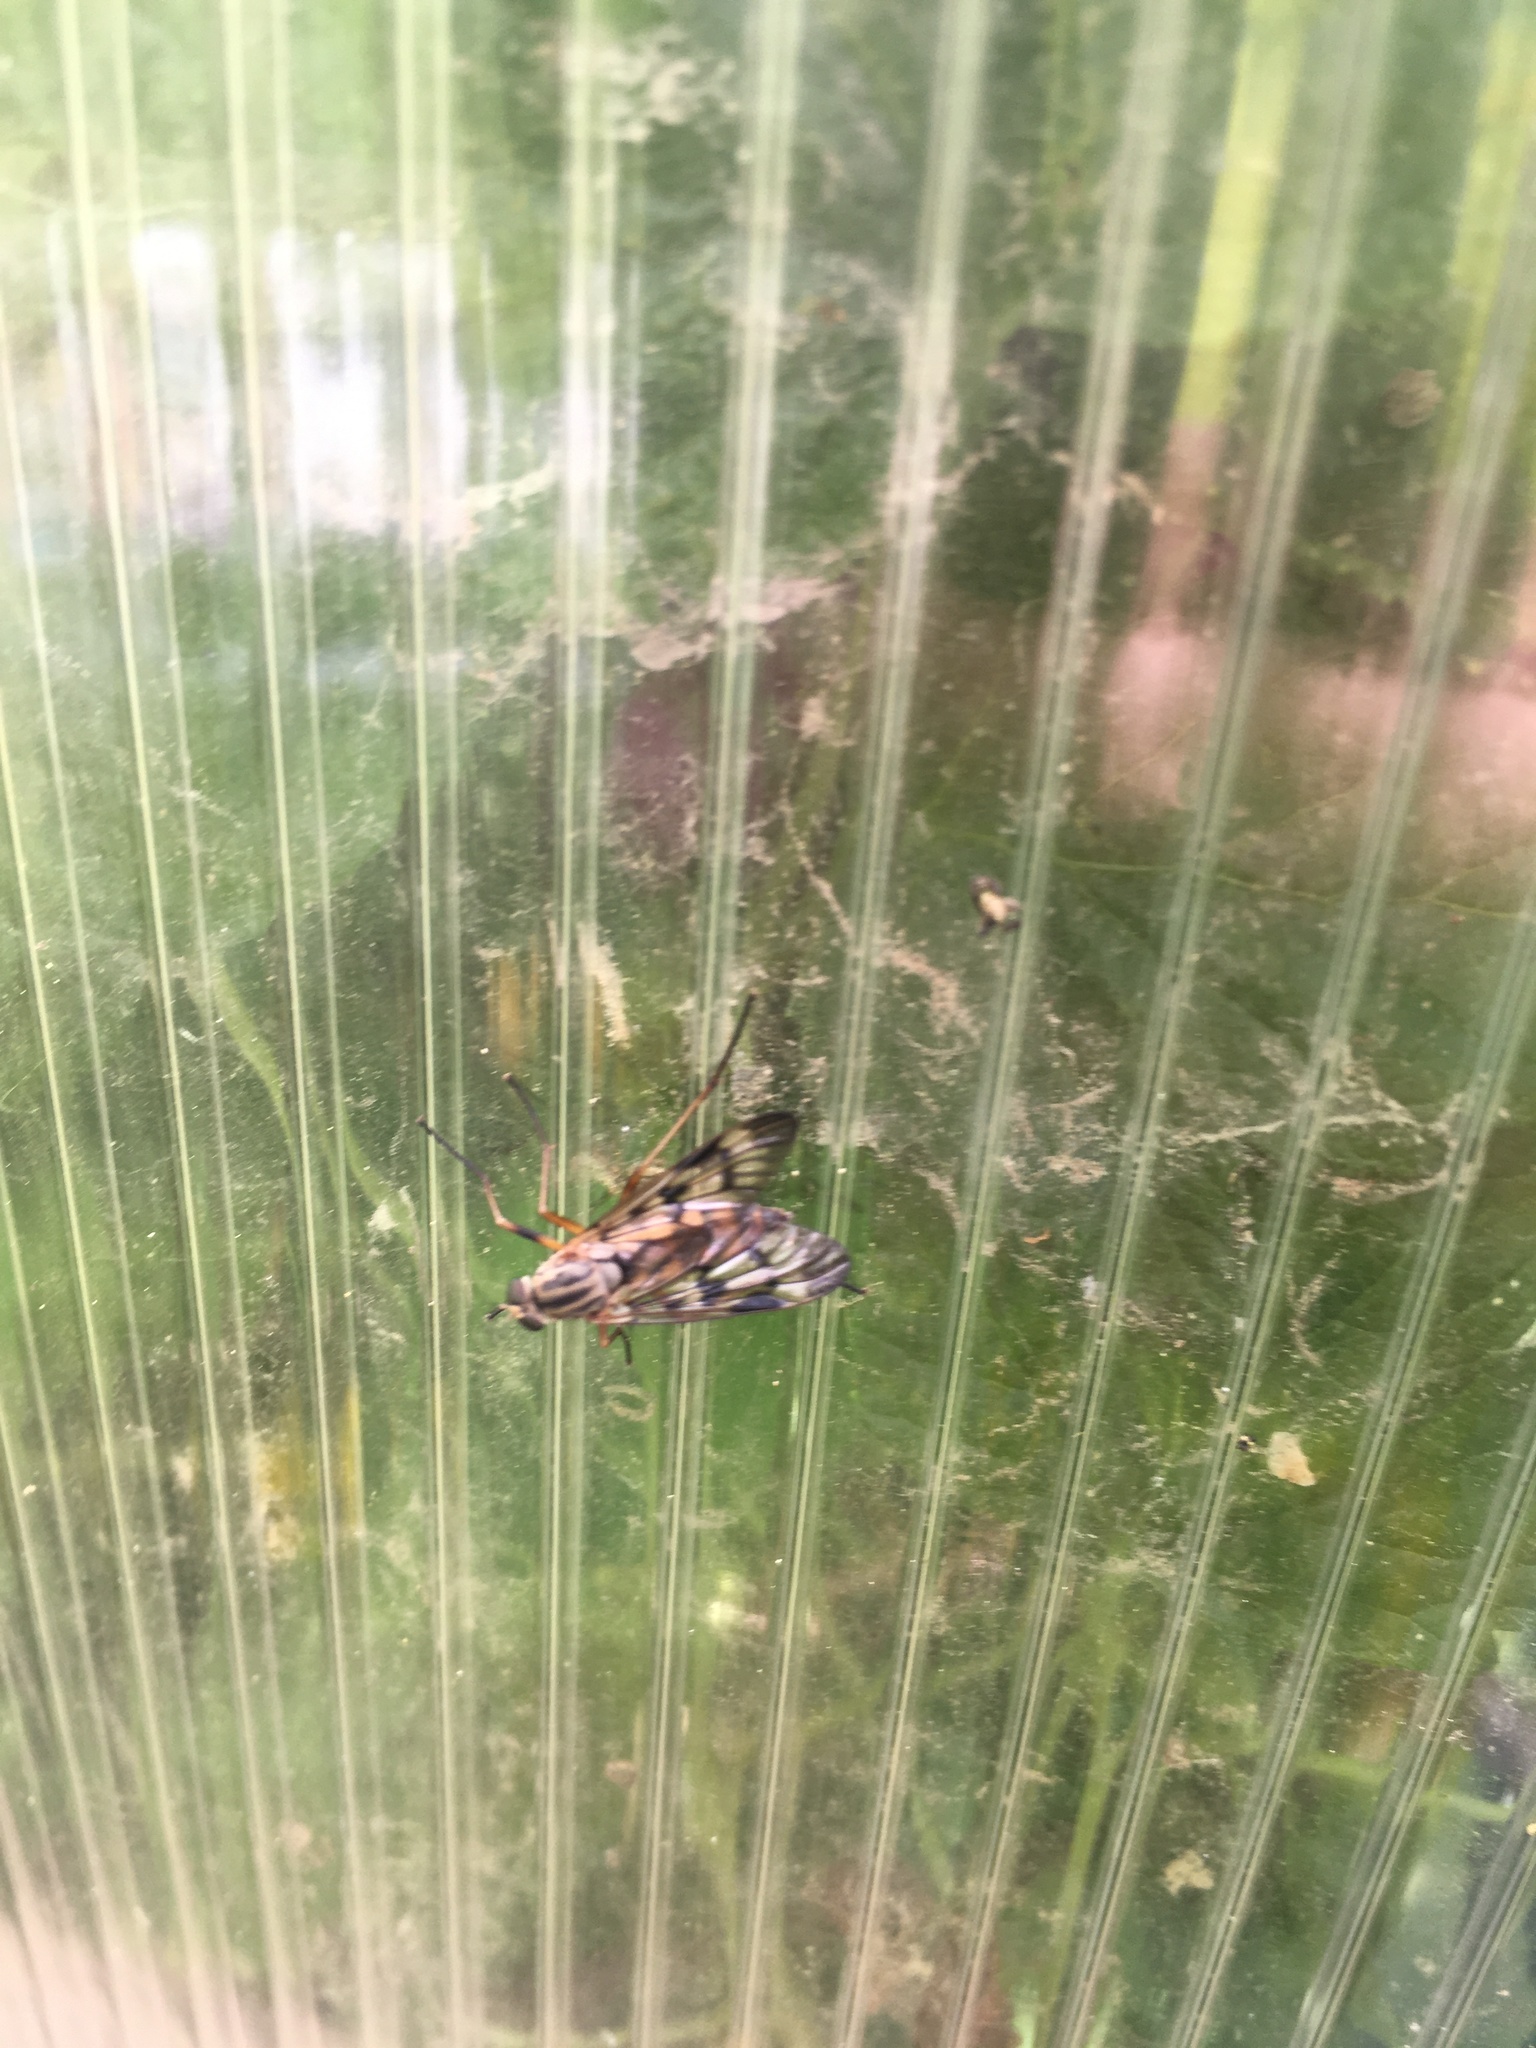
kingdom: Animalia
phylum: Arthropoda
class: Insecta
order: Diptera
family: Rhagionidae
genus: Rhagio
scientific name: Rhagio scolopacea
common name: Downlooker snipefly
